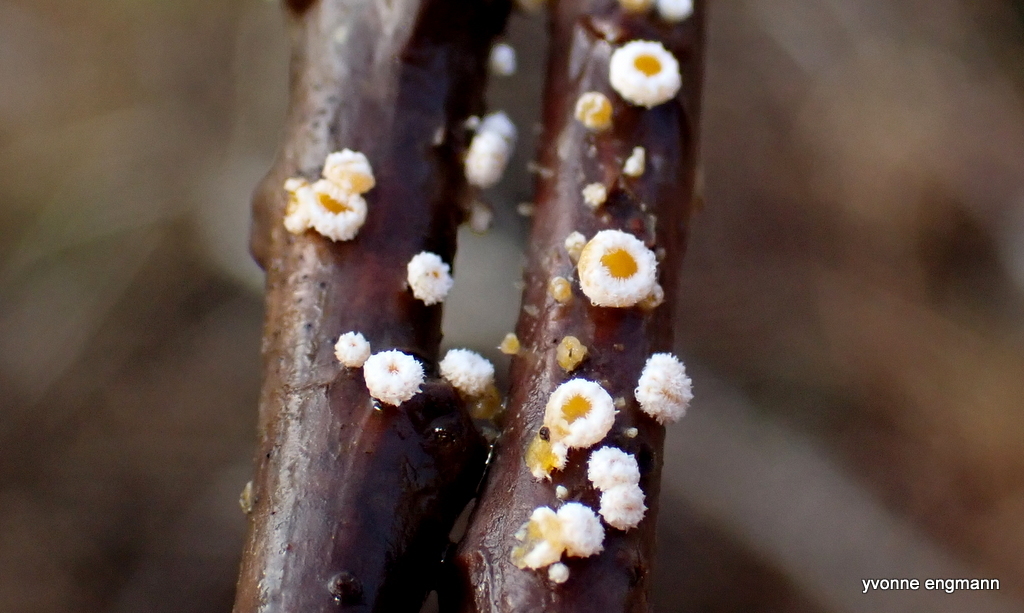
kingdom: Fungi
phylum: Ascomycota
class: Leotiomycetes
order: Helotiales
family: Lachnaceae
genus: Capitotricha
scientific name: Capitotricha bicolor
